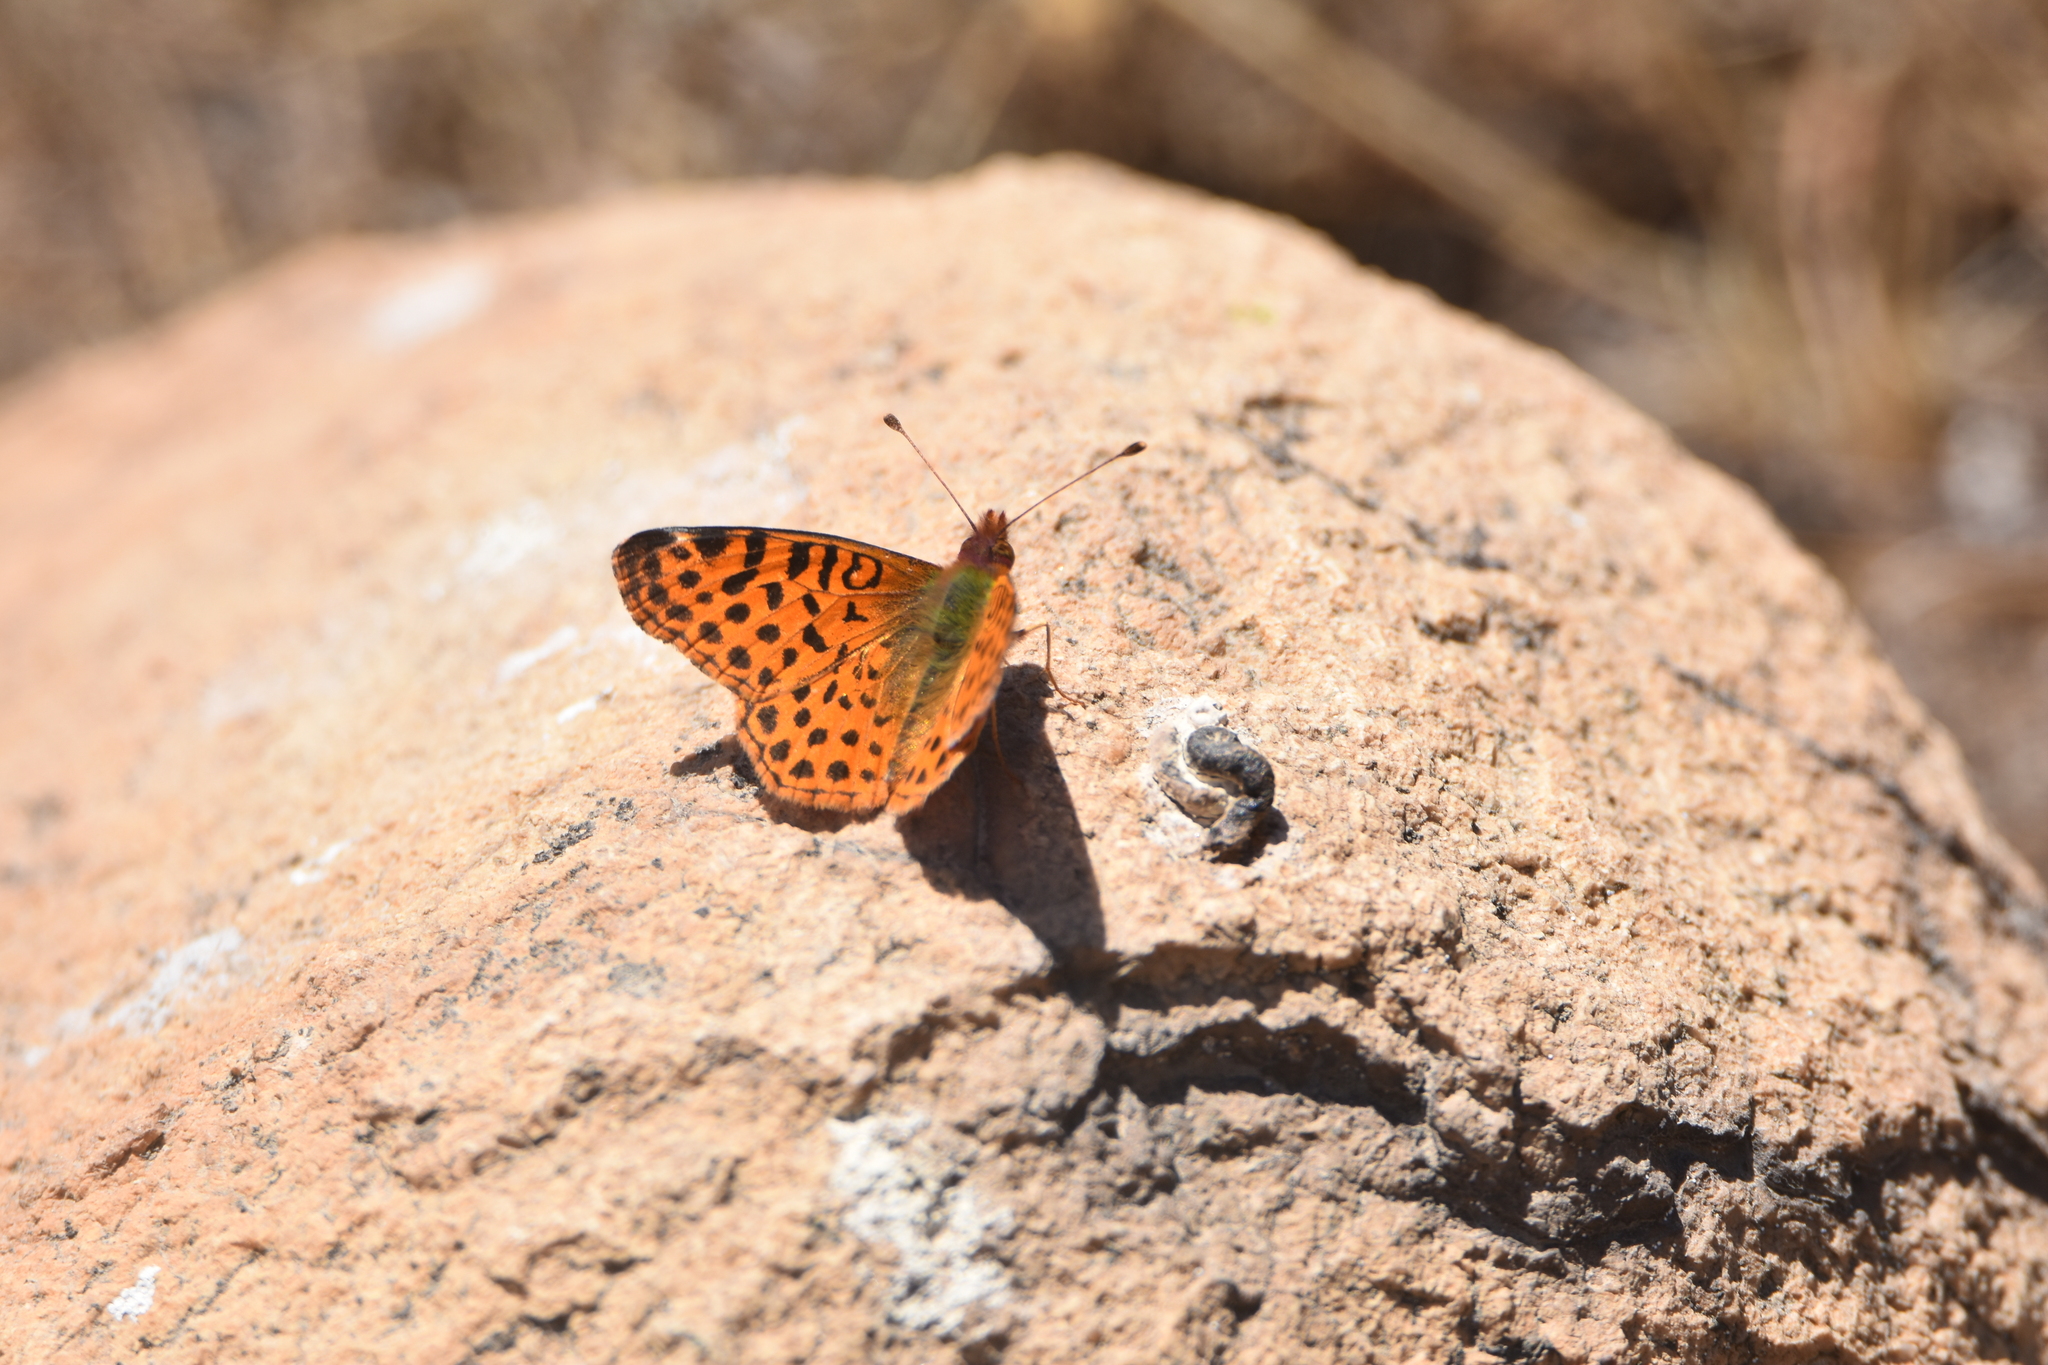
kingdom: Animalia
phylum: Arthropoda
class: Insecta
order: Lepidoptera
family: Nymphalidae
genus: Issoria
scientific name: Issoria Yramea cytheris
